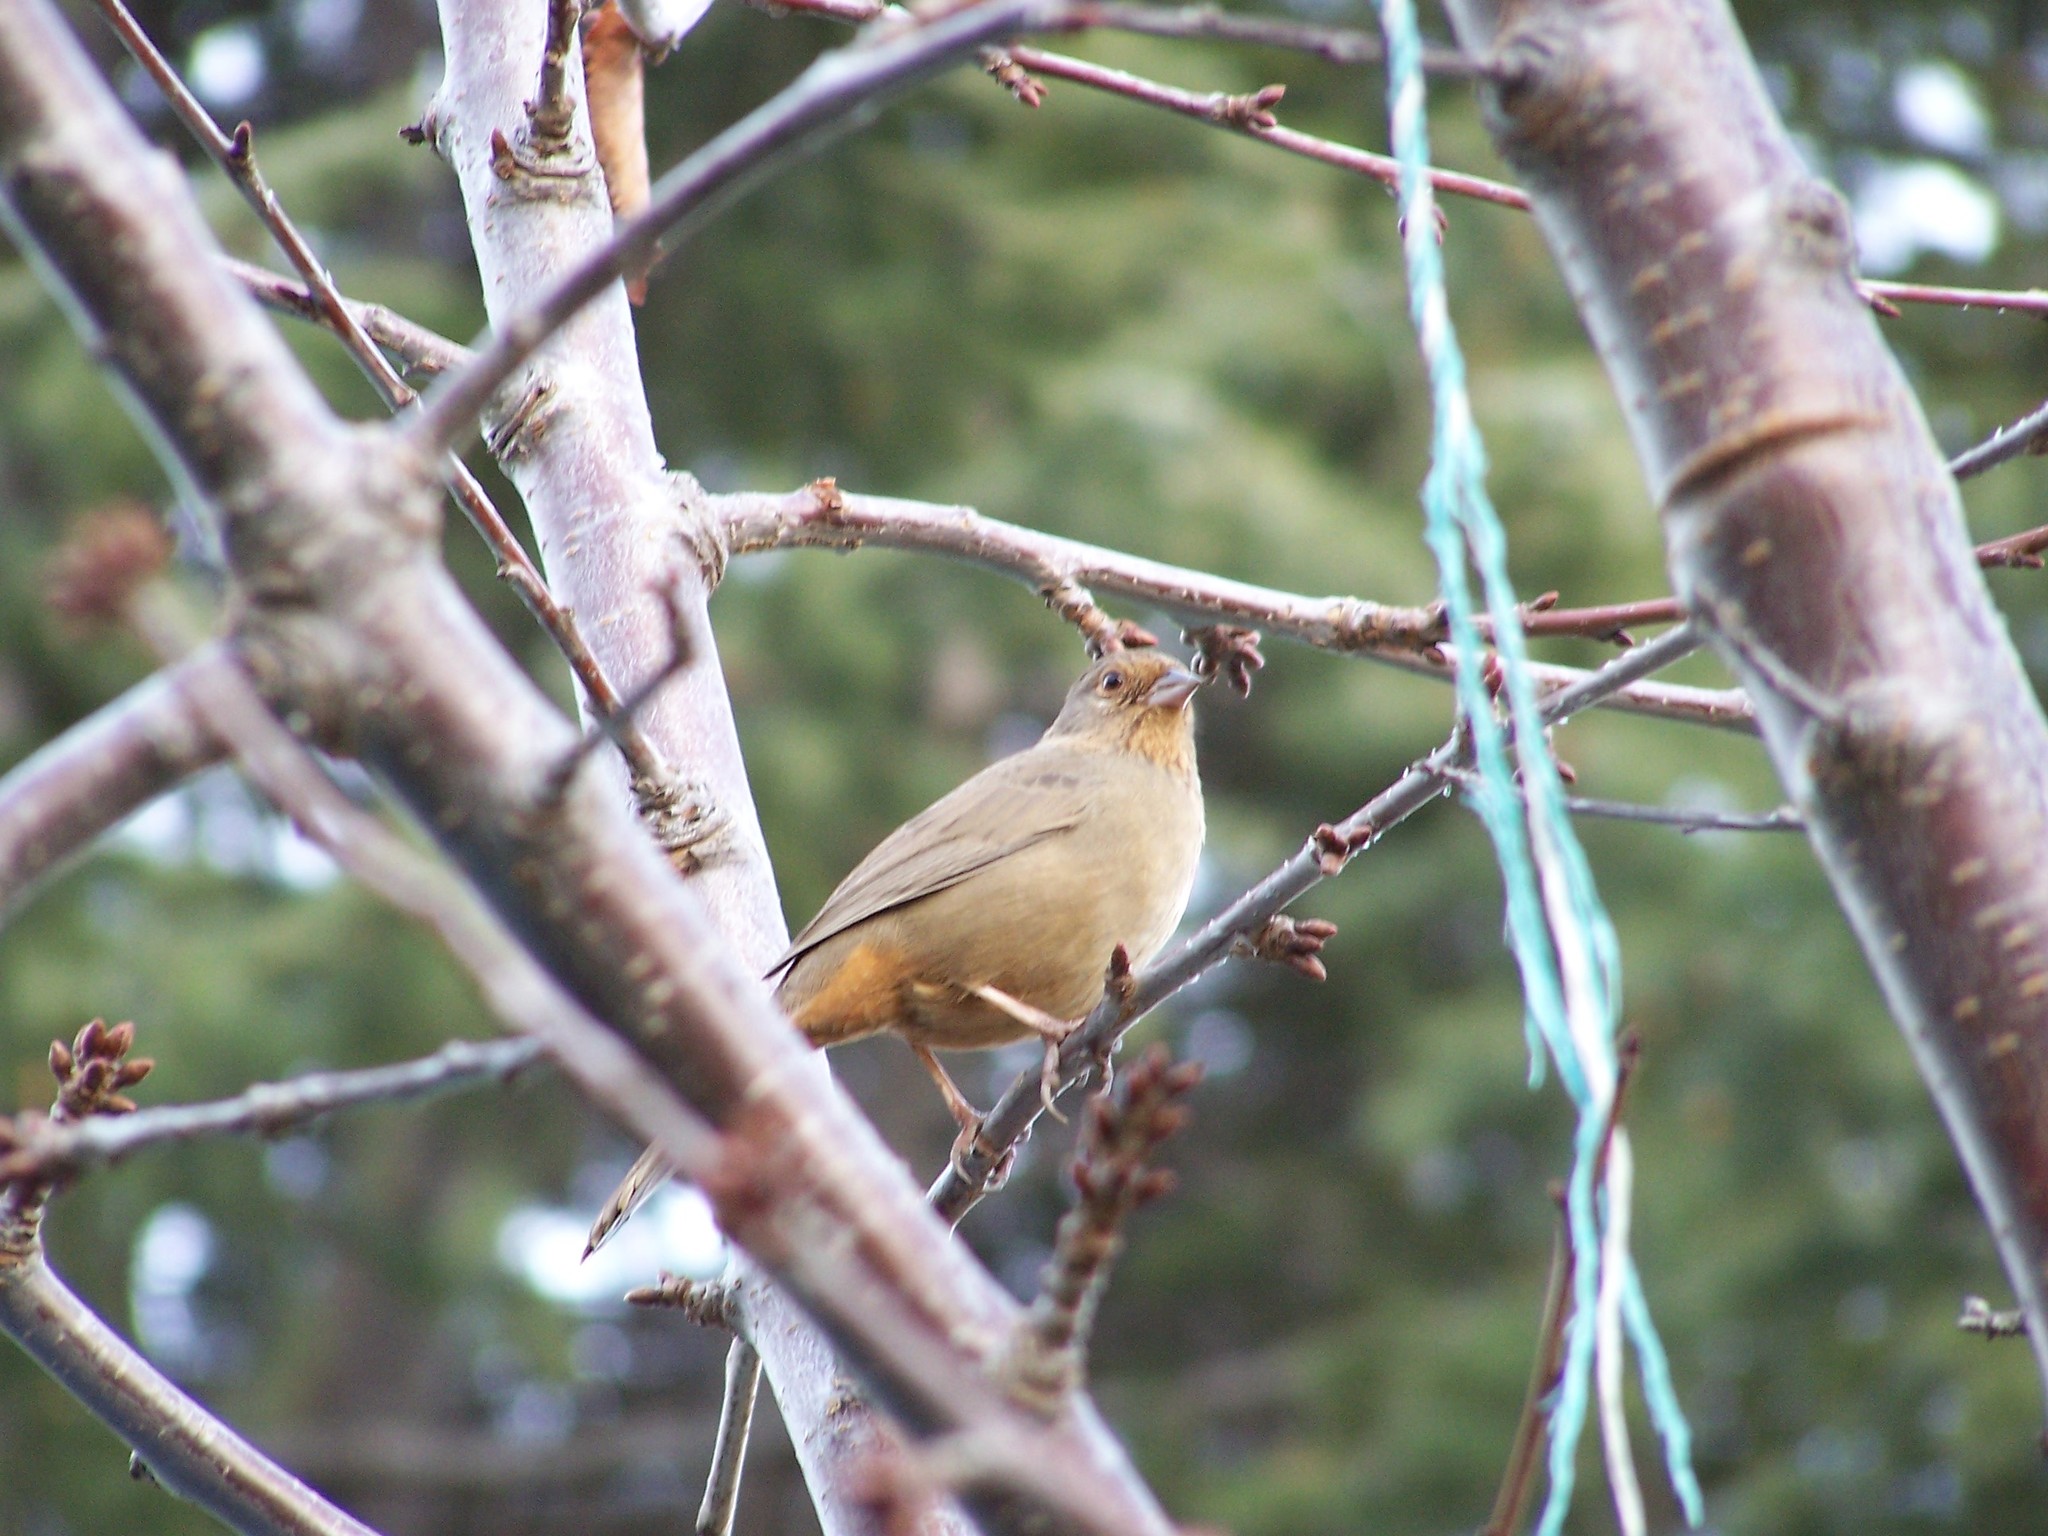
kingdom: Animalia
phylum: Chordata
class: Aves
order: Passeriformes
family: Passerellidae
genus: Melozone
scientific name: Melozone crissalis
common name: California towhee
